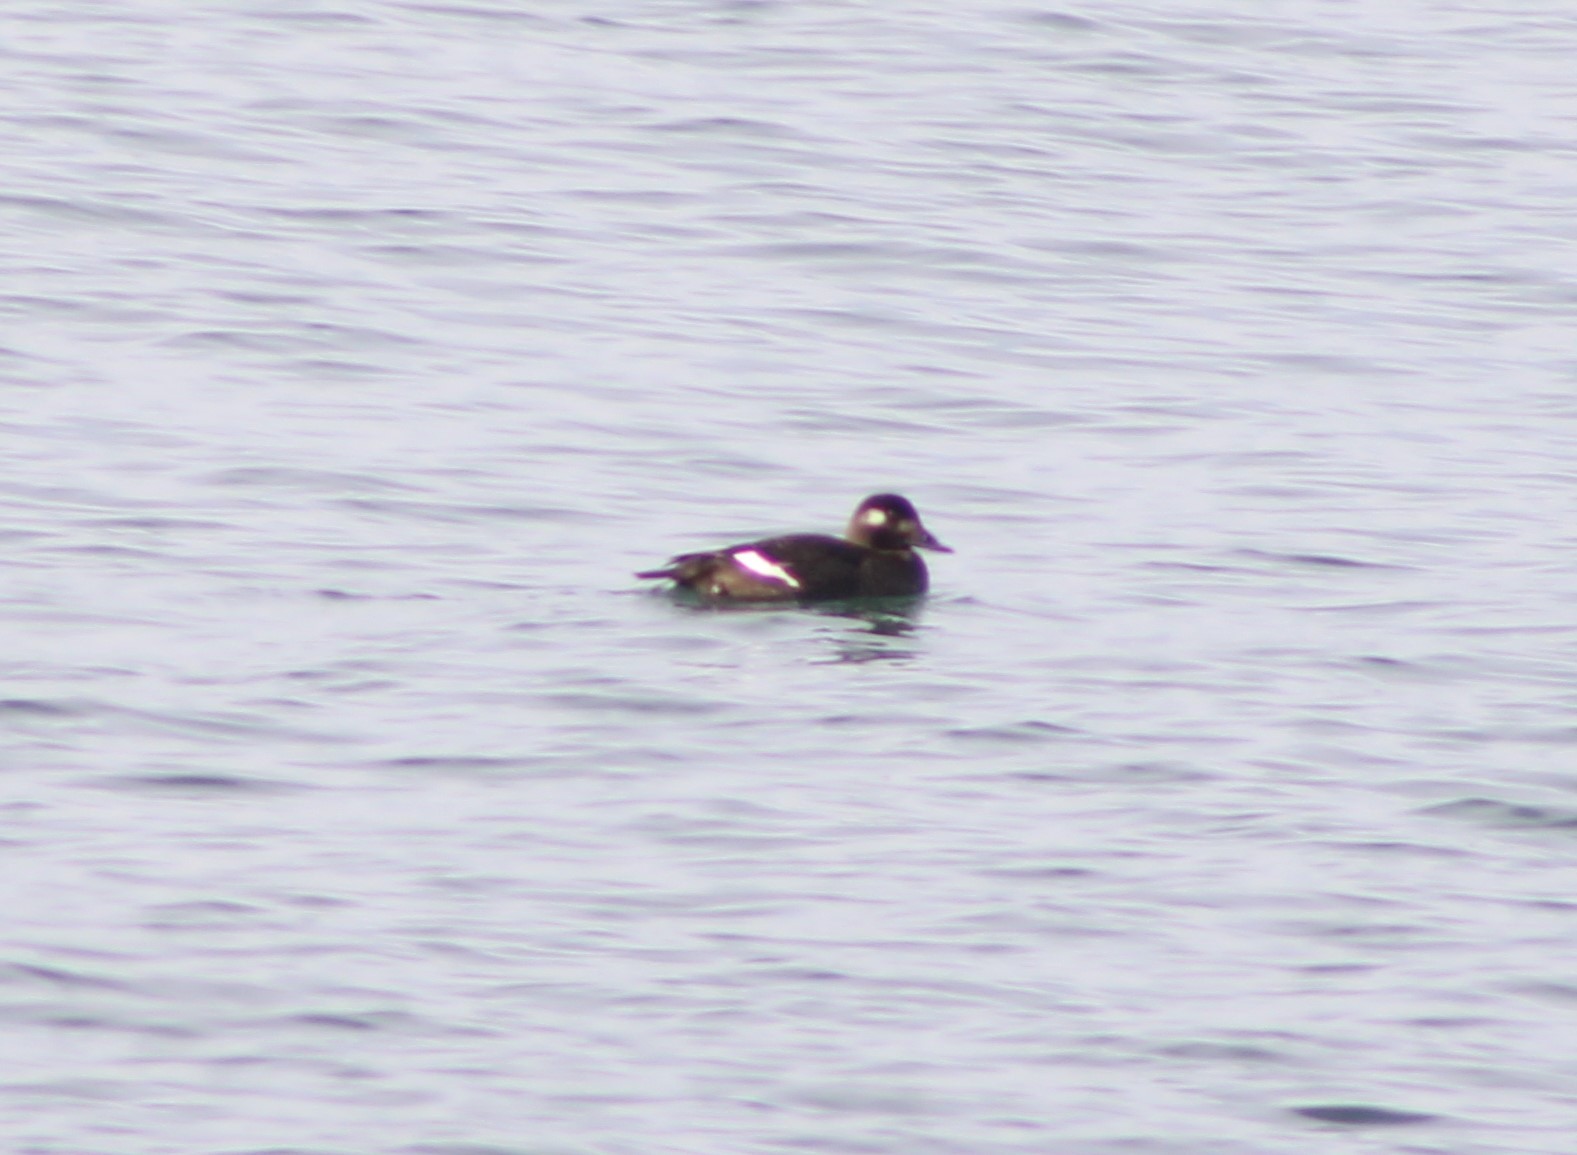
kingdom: Animalia
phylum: Chordata
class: Aves
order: Anseriformes
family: Anatidae
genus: Melanitta
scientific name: Melanitta deglandi
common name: White-winged scoter
